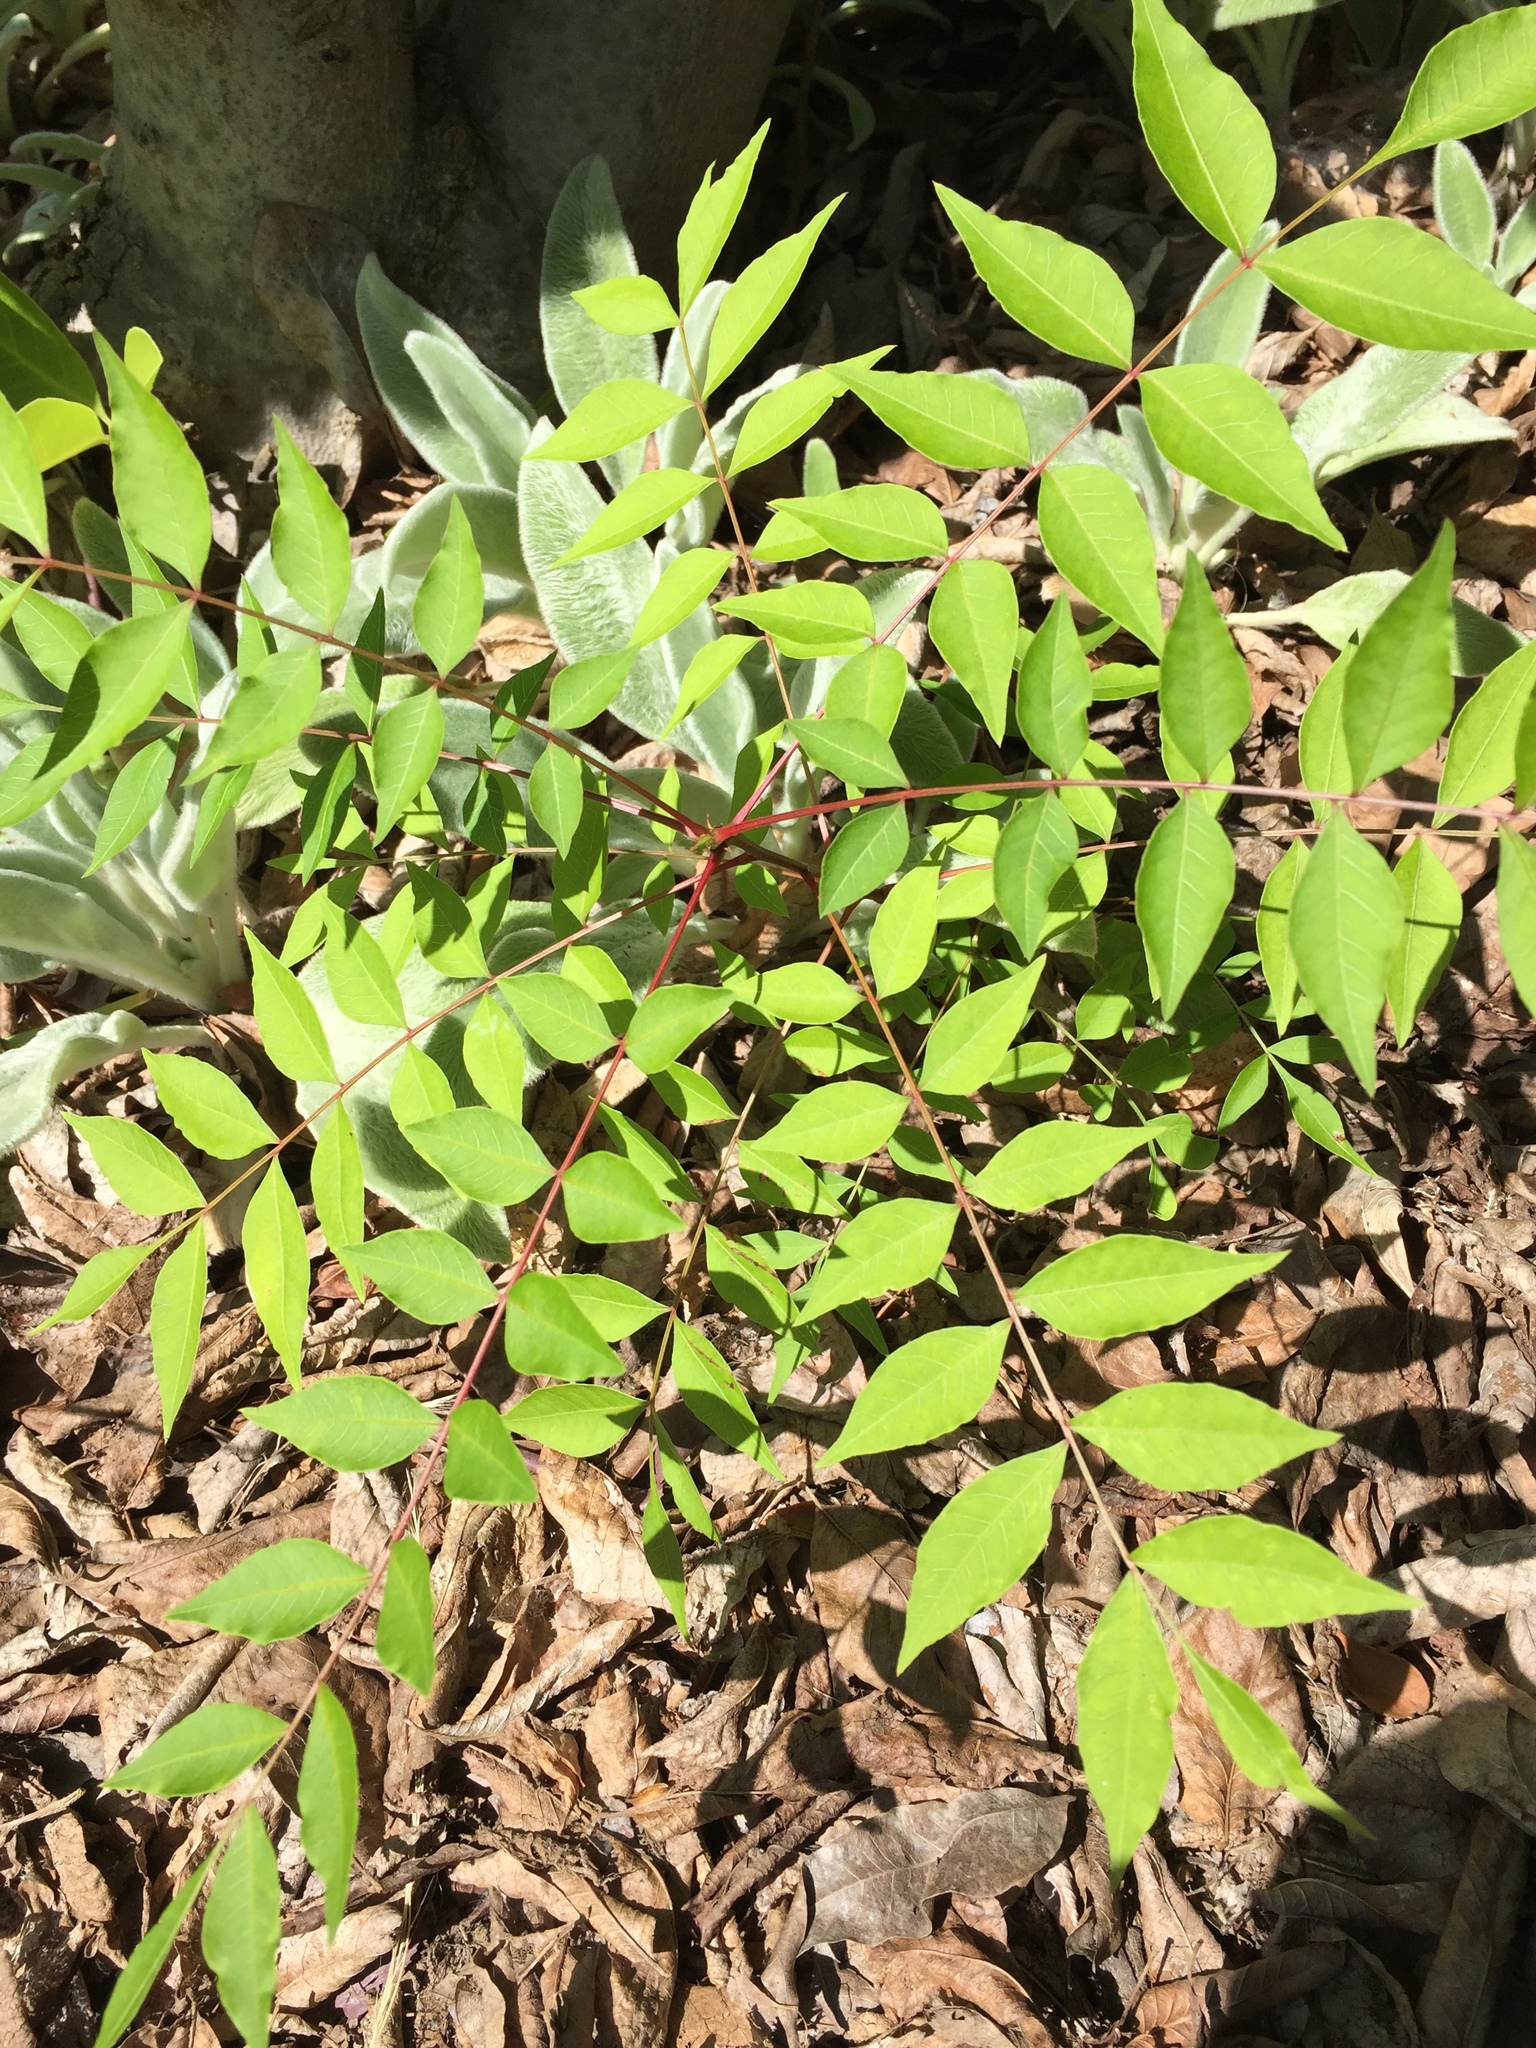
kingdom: Plantae
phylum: Tracheophyta
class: Magnoliopsida
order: Sapindales
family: Anacardiaceae
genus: Pistacia
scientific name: Pistacia chinensis
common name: Chinese pistache
